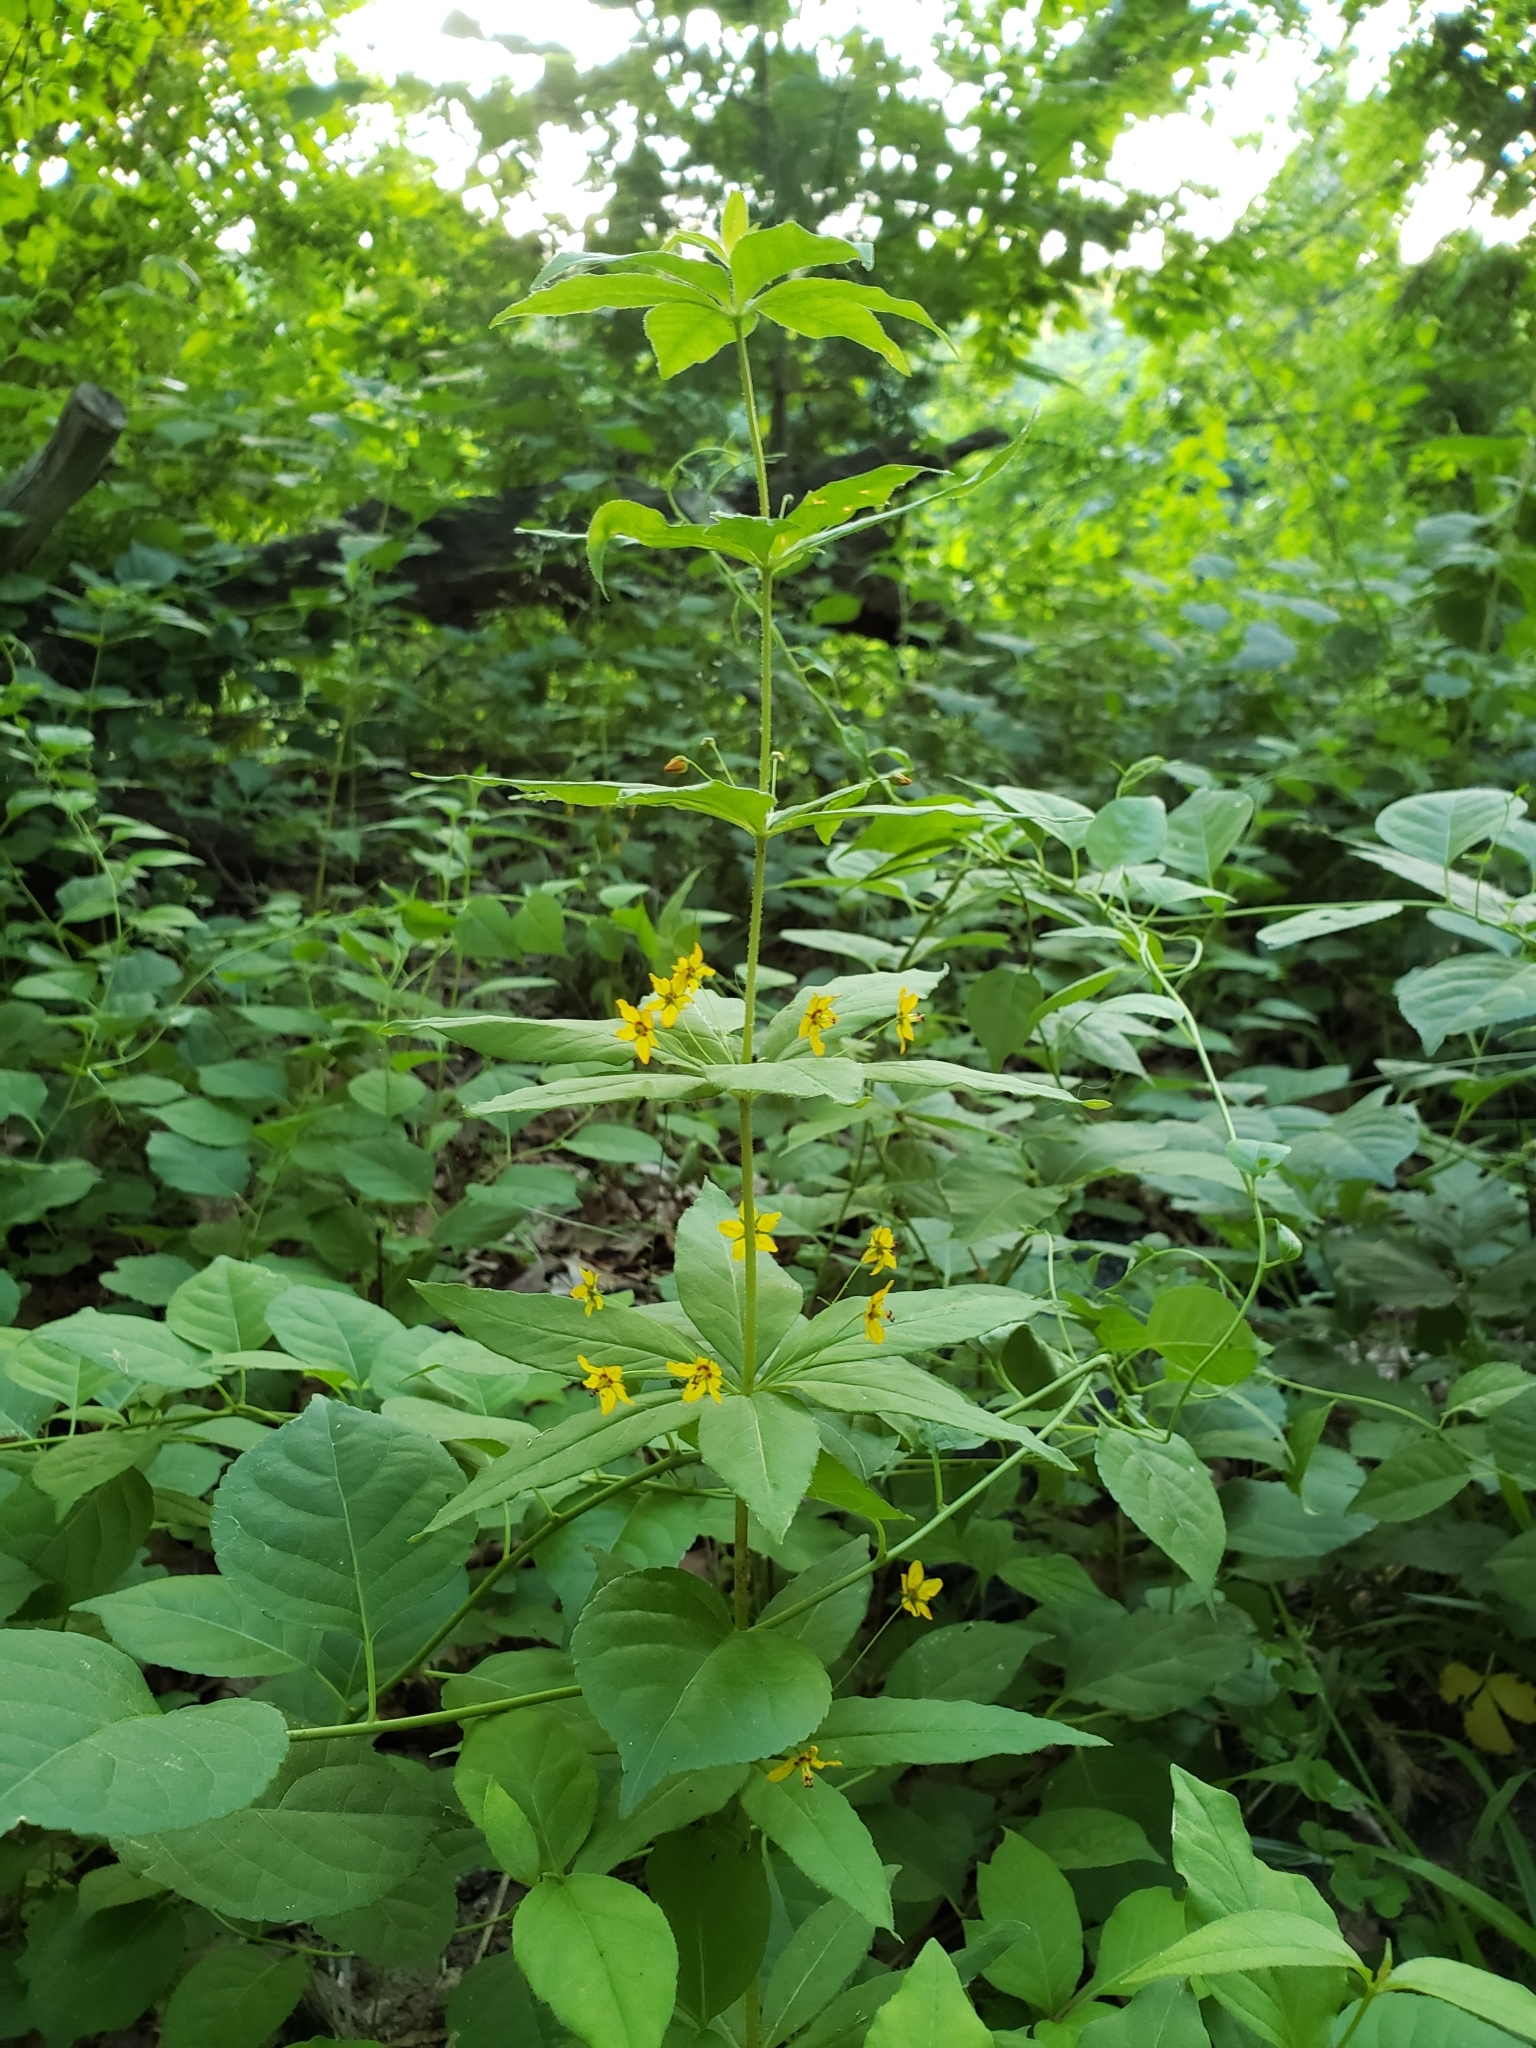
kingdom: Plantae
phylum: Tracheophyta
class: Magnoliopsida
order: Ericales
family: Primulaceae
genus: Lysimachia
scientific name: Lysimachia quadrifolia
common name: Whorled loosestrife
